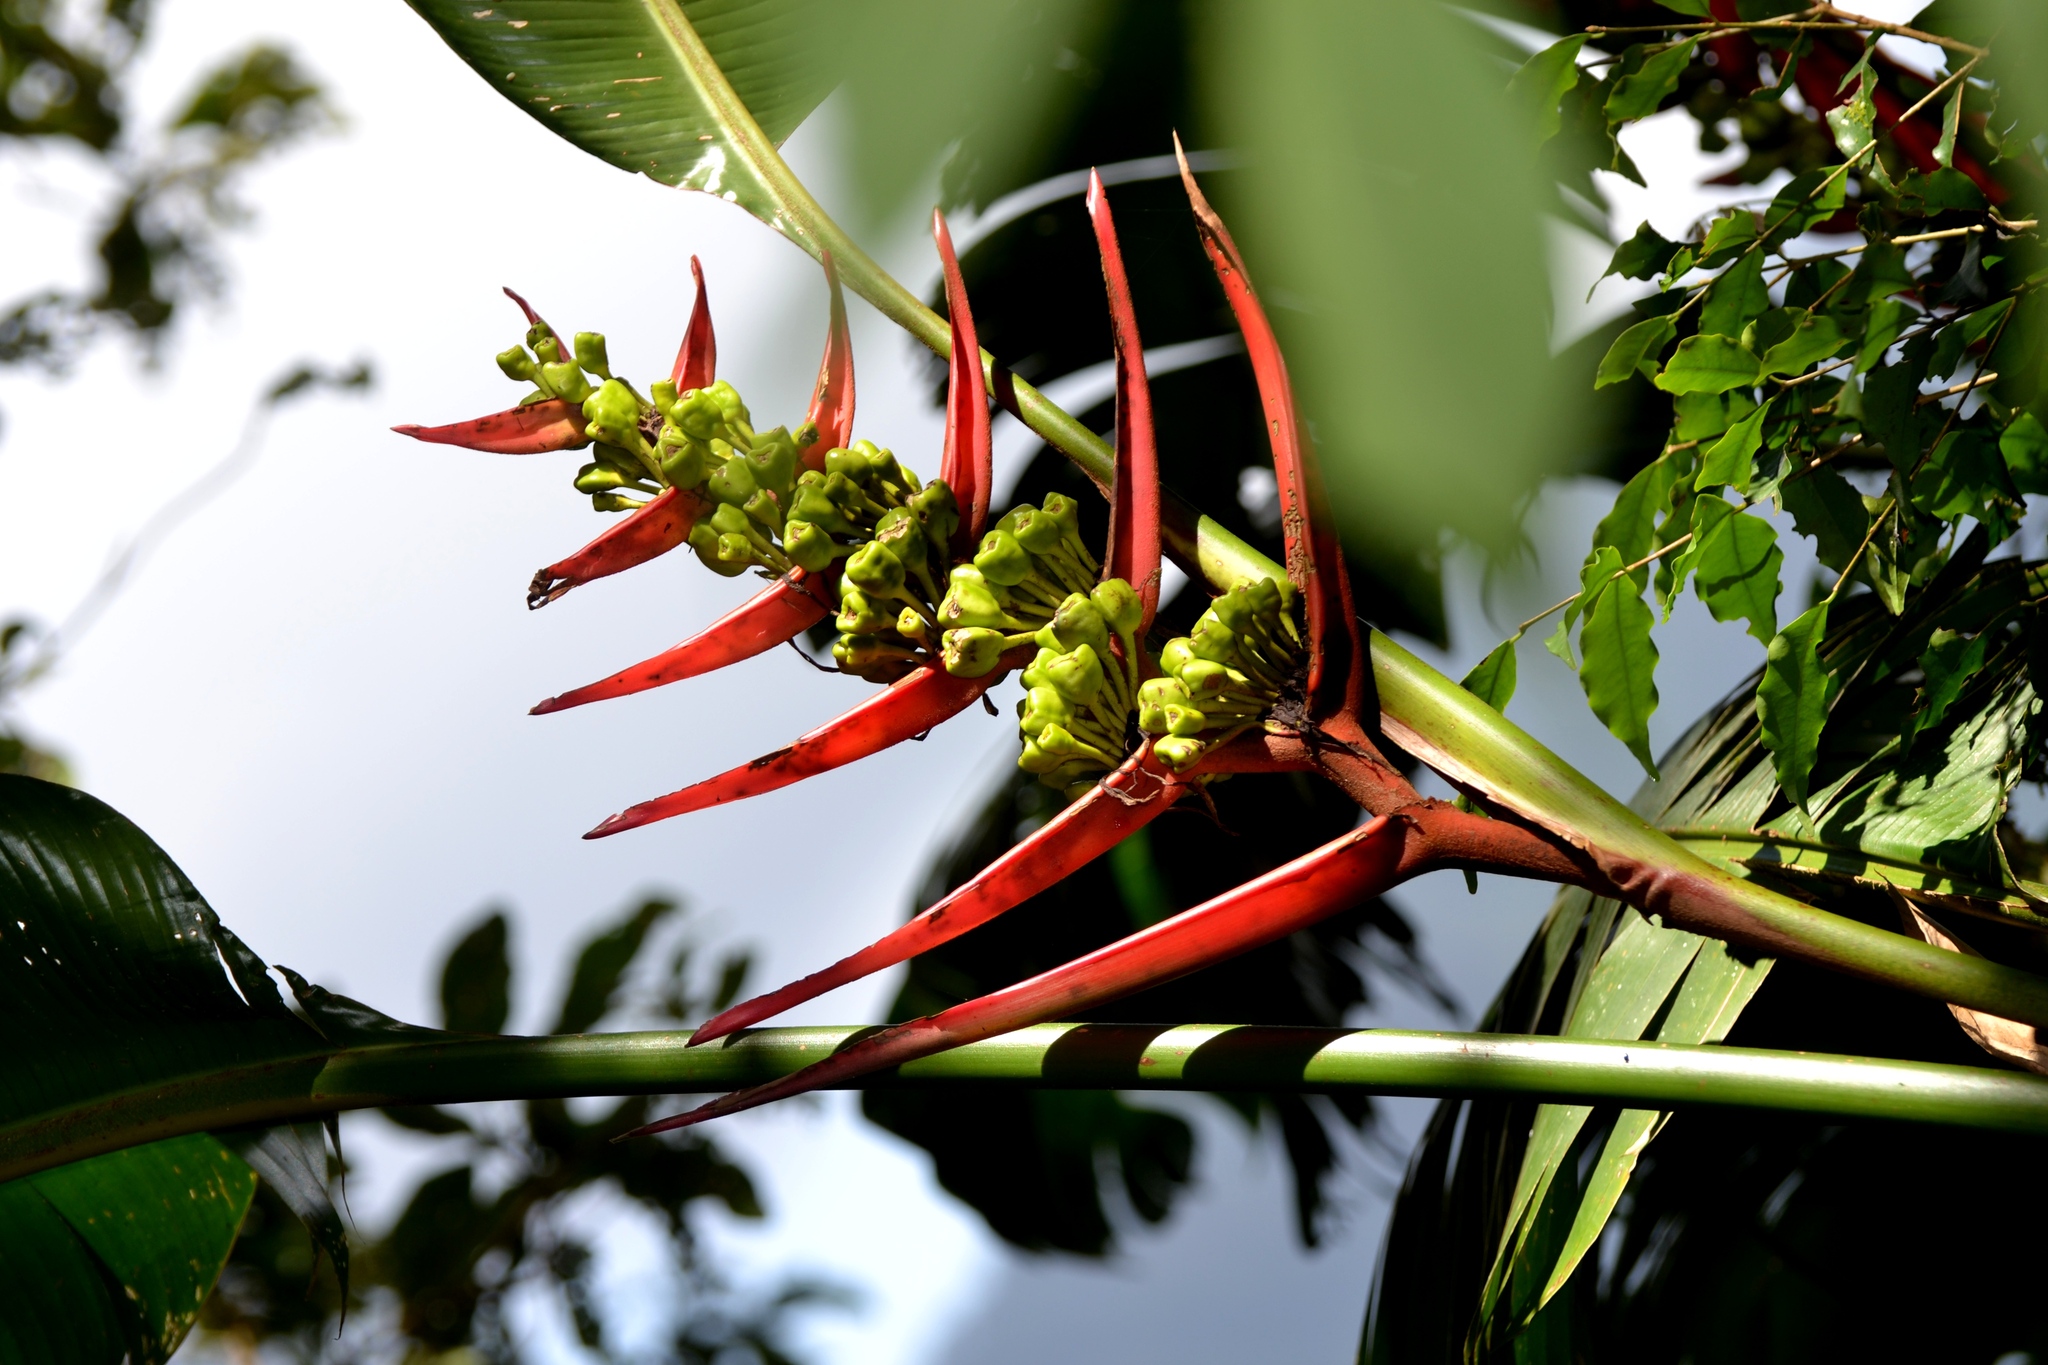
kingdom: Plantae
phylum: Tracheophyta
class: Liliopsida
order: Zingiberales
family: Heliconiaceae
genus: Heliconia
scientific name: Heliconia adflexa
